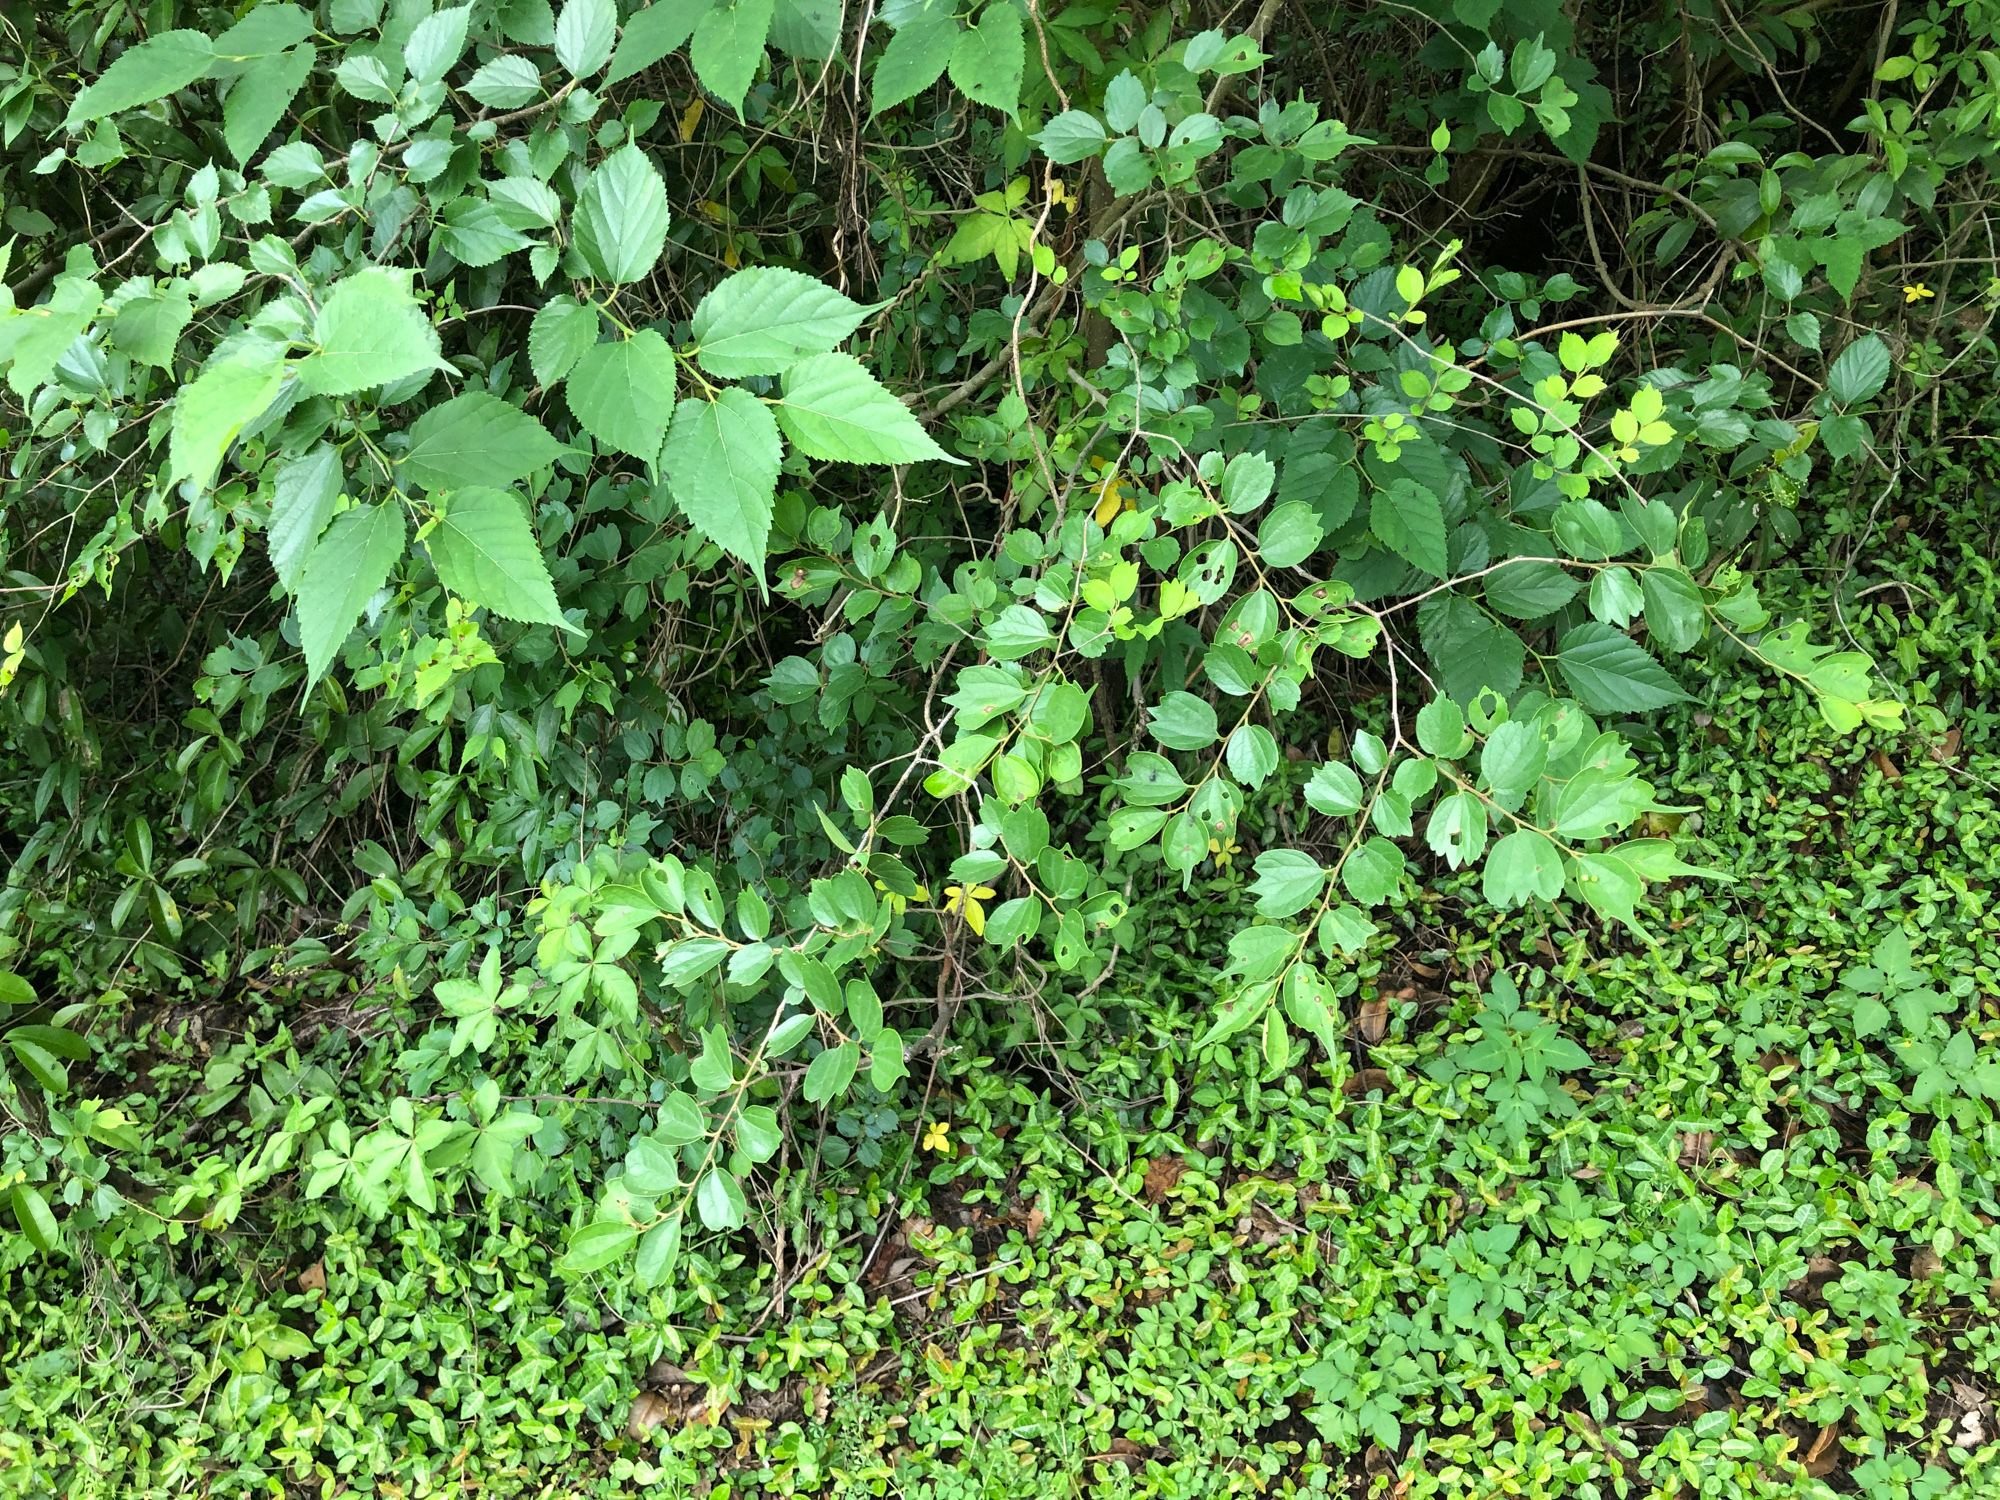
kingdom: Plantae
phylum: Tracheophyta
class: Magnoliopsida
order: Rosales
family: Cannabaceae
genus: Celtis
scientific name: Celtis biondii
